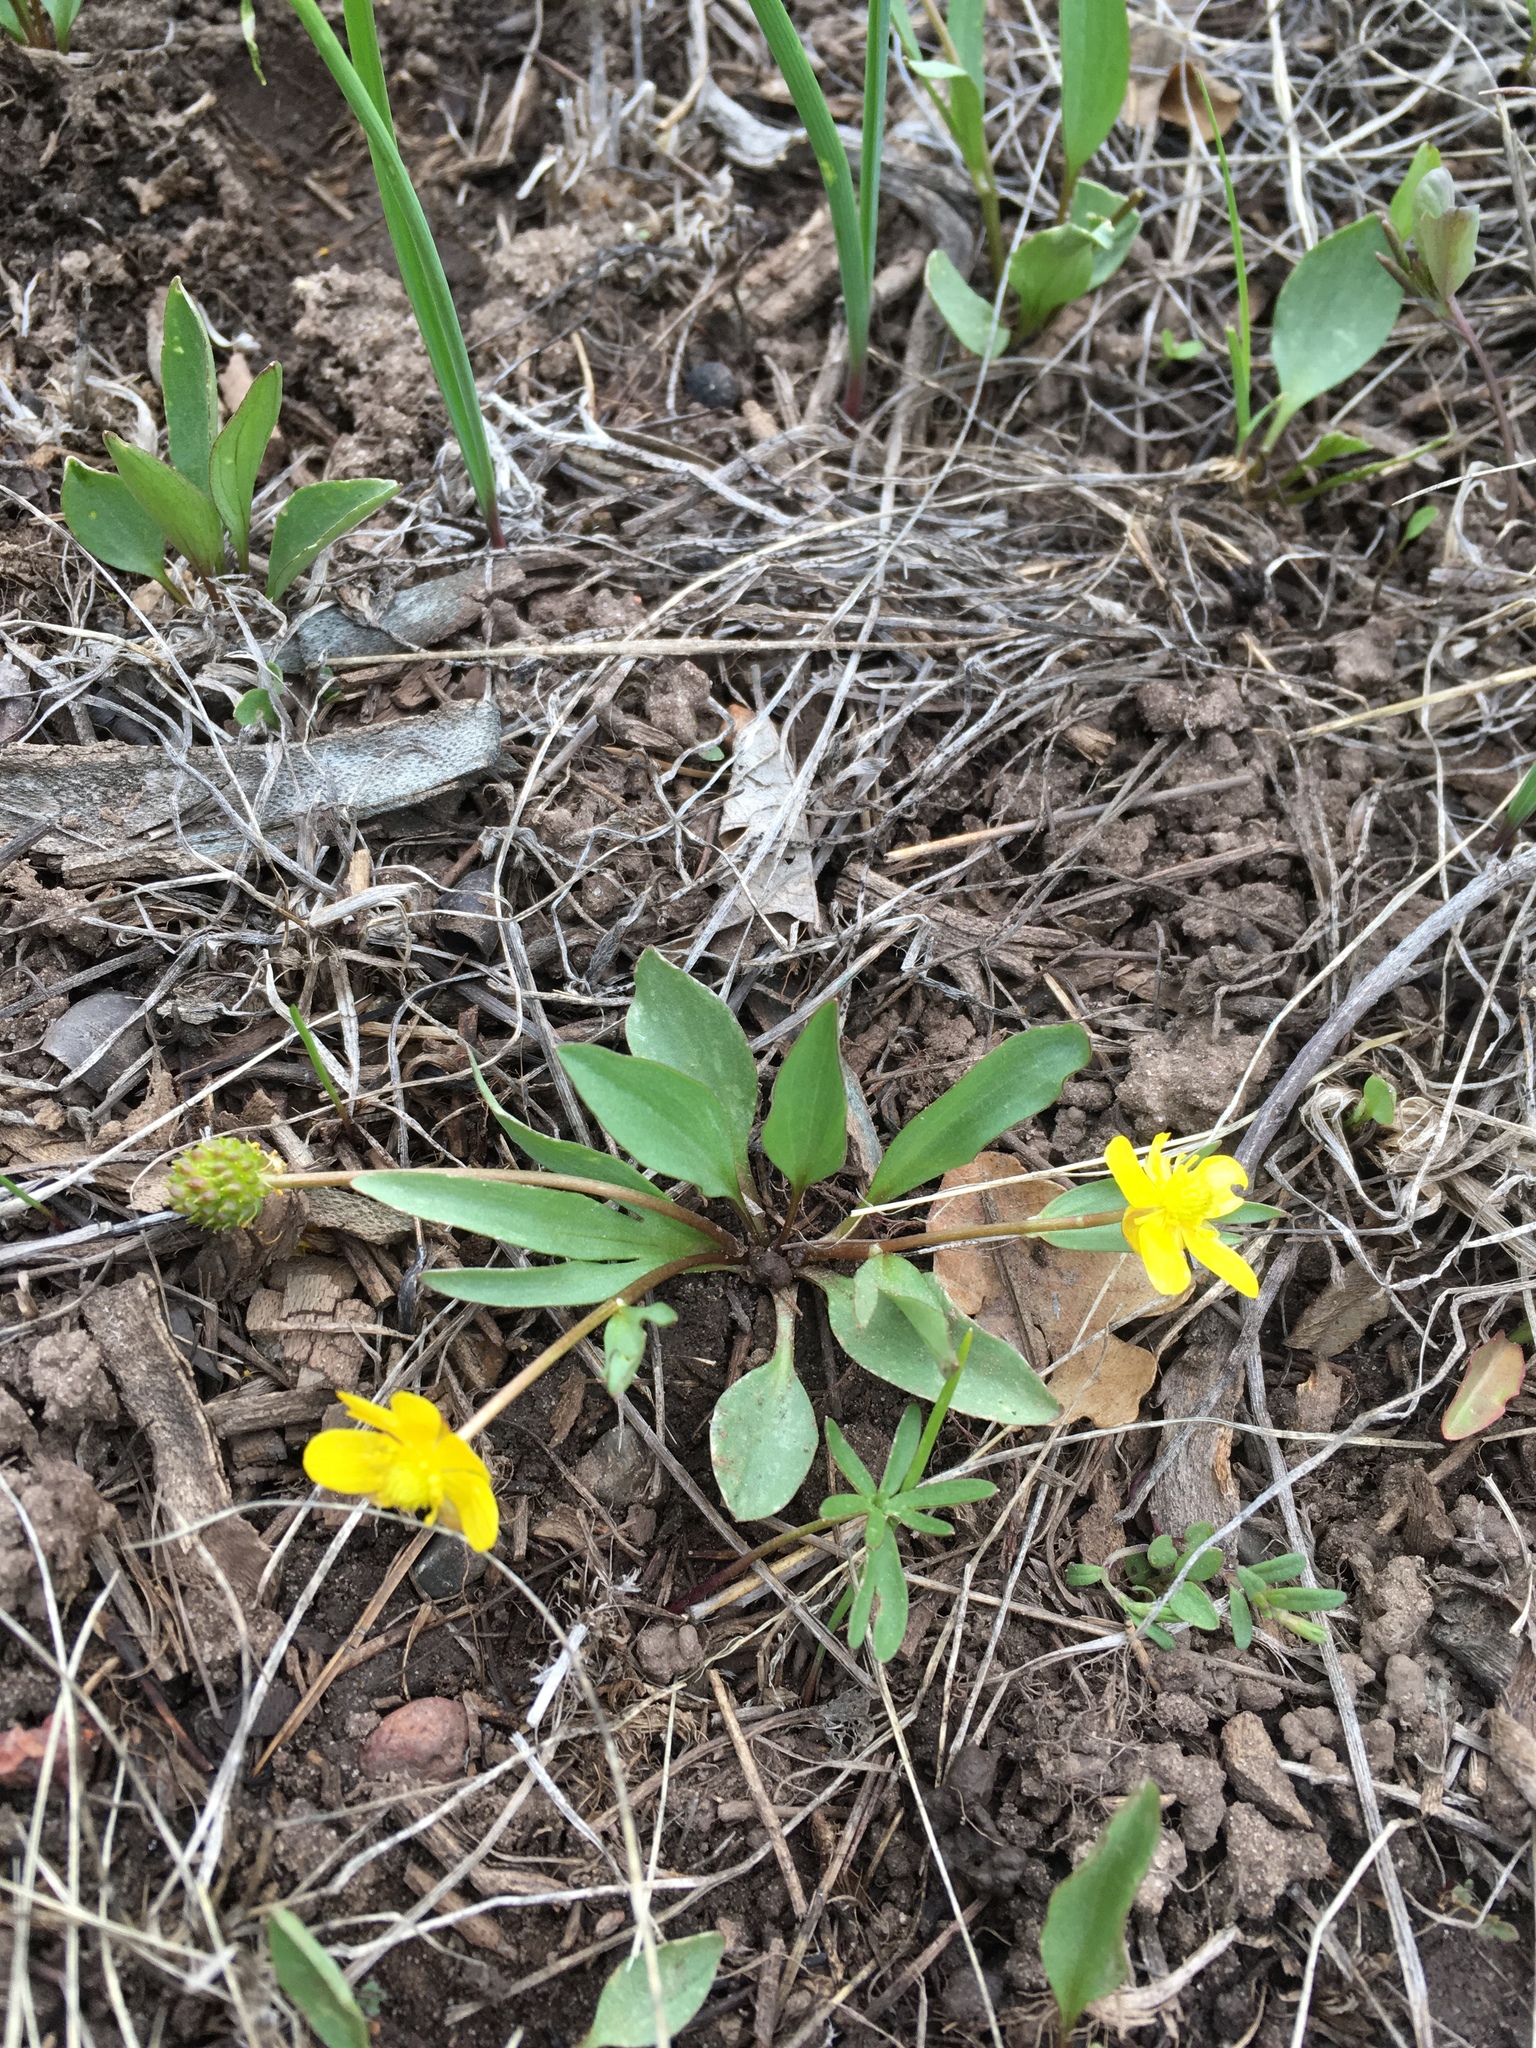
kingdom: Plantae
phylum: Tracheophyta
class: Magnoliopsida
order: Ranunculales
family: Ranunculaceae
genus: Ranunculus
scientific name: Ranunculus glaberrimus
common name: Sagebrush buttercup
